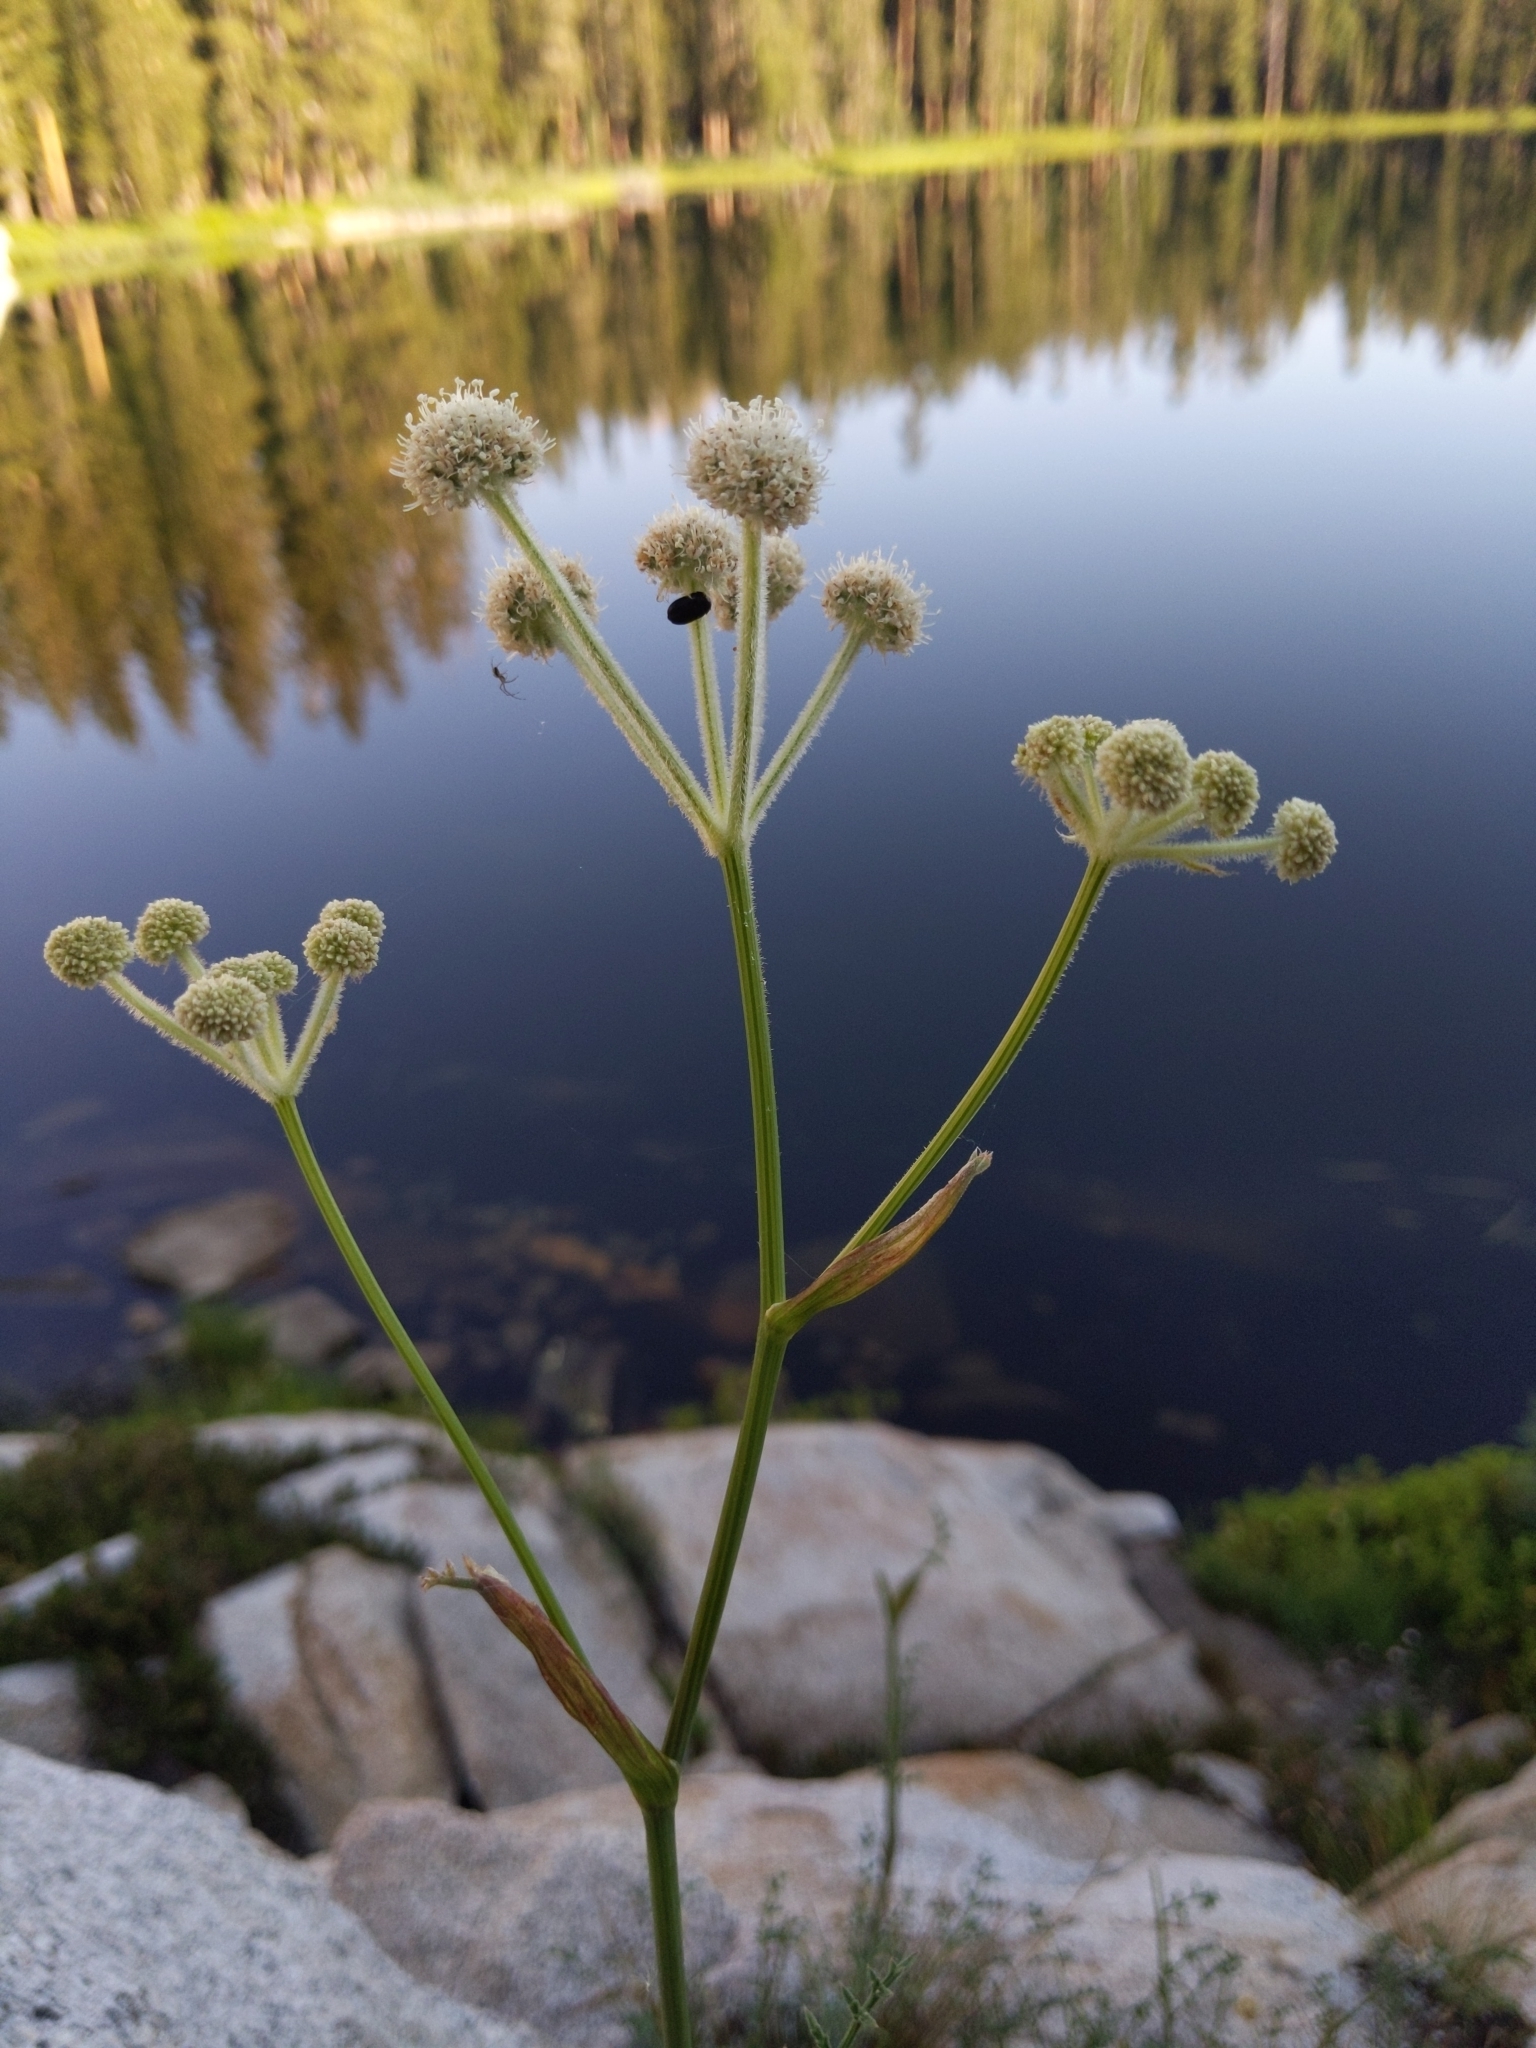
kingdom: Plantae
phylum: Tracheophyta
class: Magnoliopsida
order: Apiales
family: Apiaceae
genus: Angelica
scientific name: Angelica capitellata
